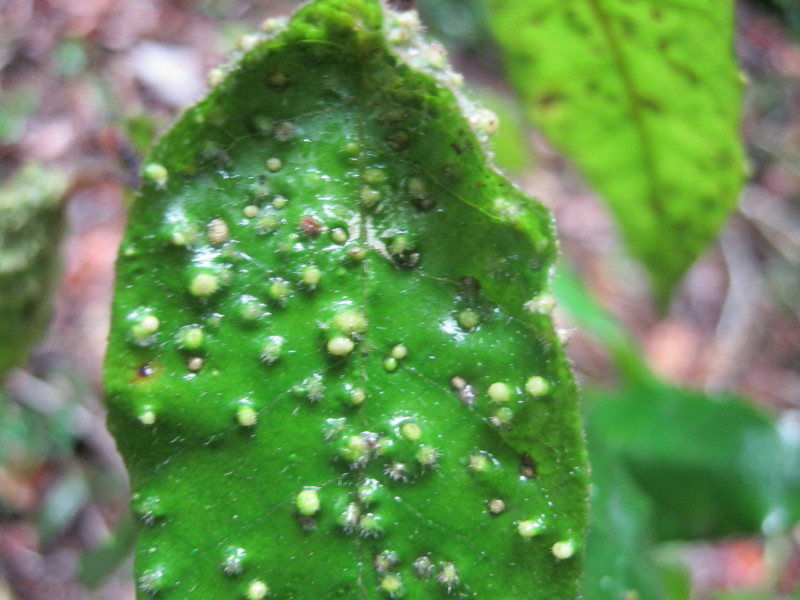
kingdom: Plantae
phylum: Tracheophyta
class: Magnoliopsida
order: Saxifragales
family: Hamamelidaceae
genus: Trichocladus
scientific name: Trichocladus crinitus
